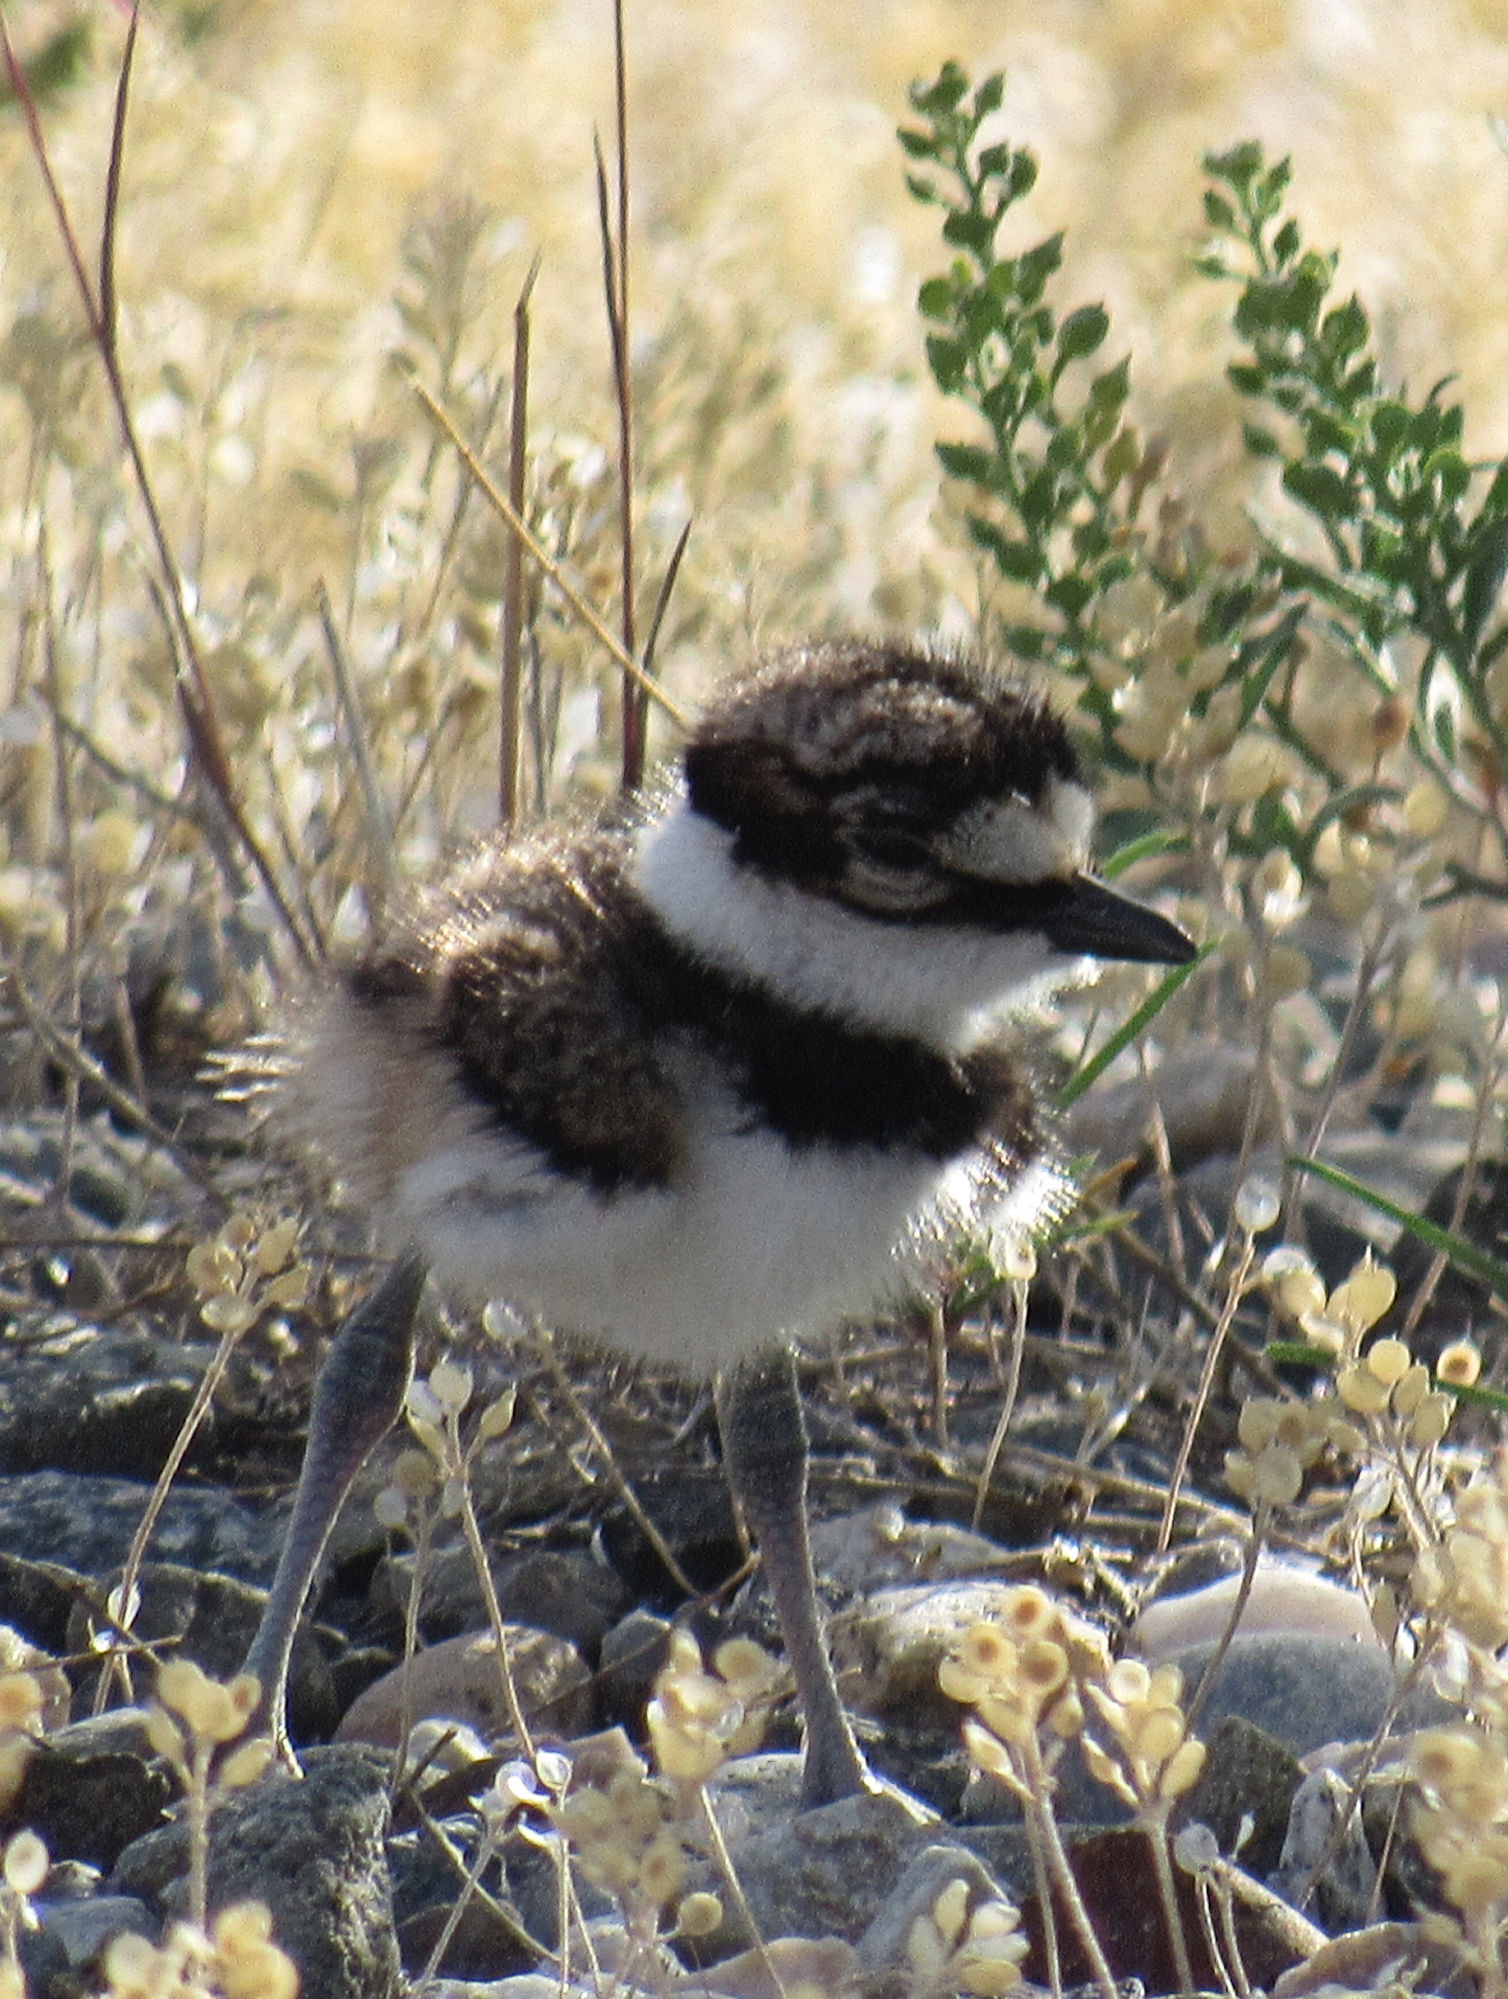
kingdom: Animalia
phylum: Chordata
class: Aves
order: Charadriiformes
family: Charadriidae
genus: Charadrius
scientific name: Charadrius vociferus
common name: Killdeer
